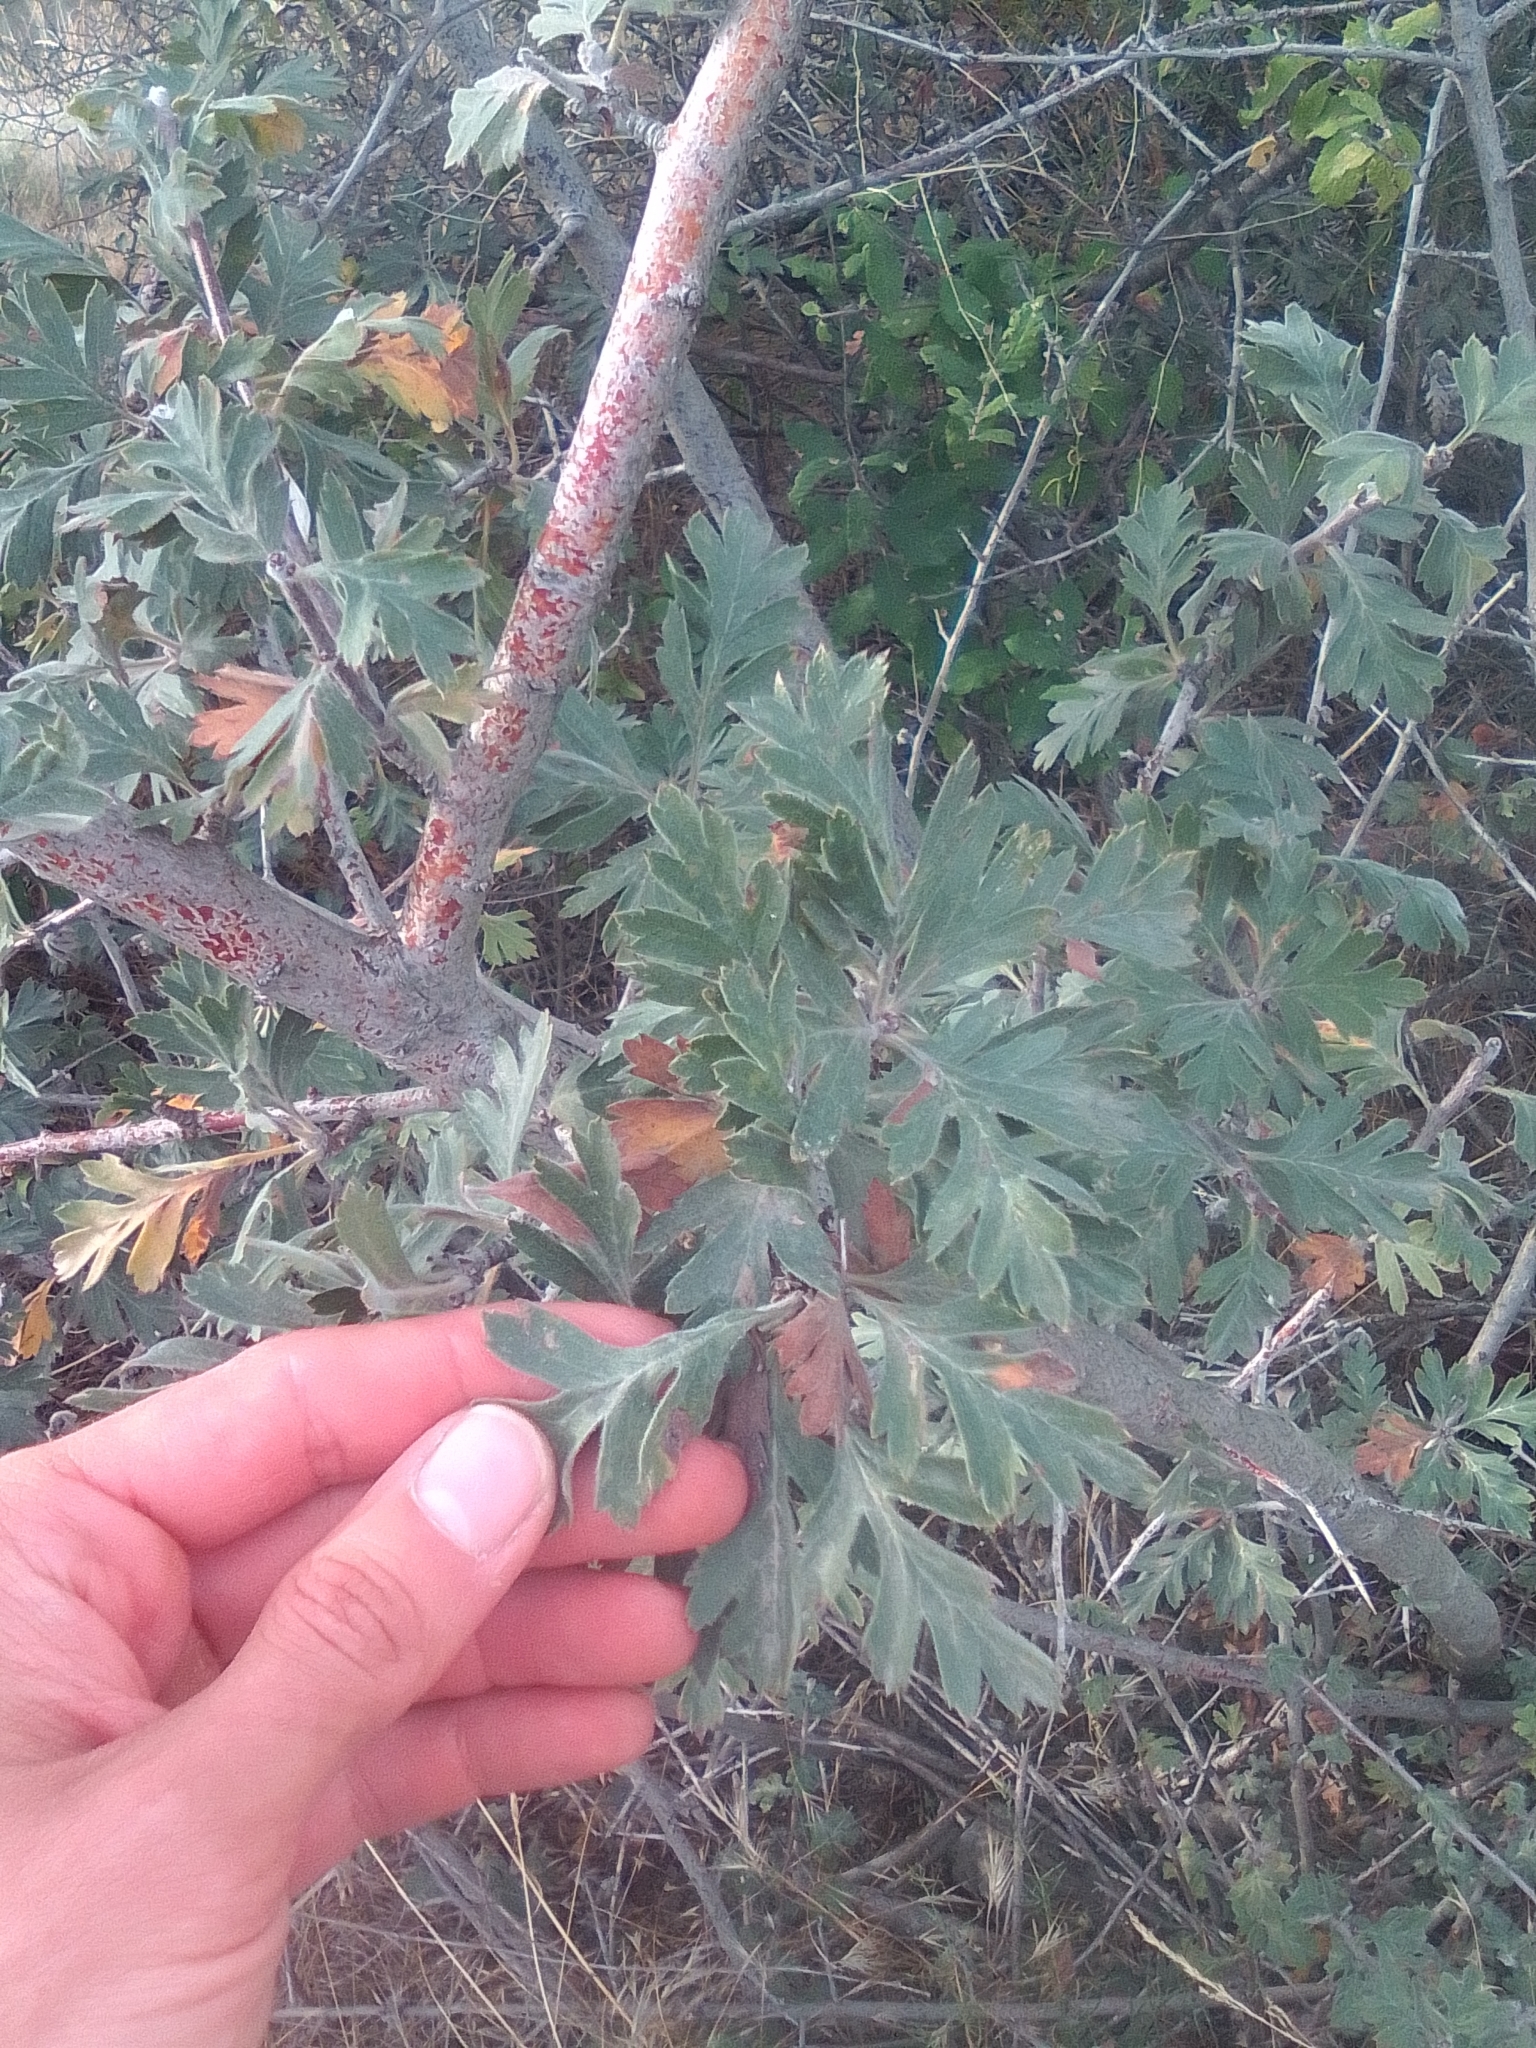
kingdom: Plantae
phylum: Tracheophyta
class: Magnoliopsida
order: Rosales
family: Rosaceae
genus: Crataegus
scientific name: Crataegus orientalis
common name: Oriental hawthorn
